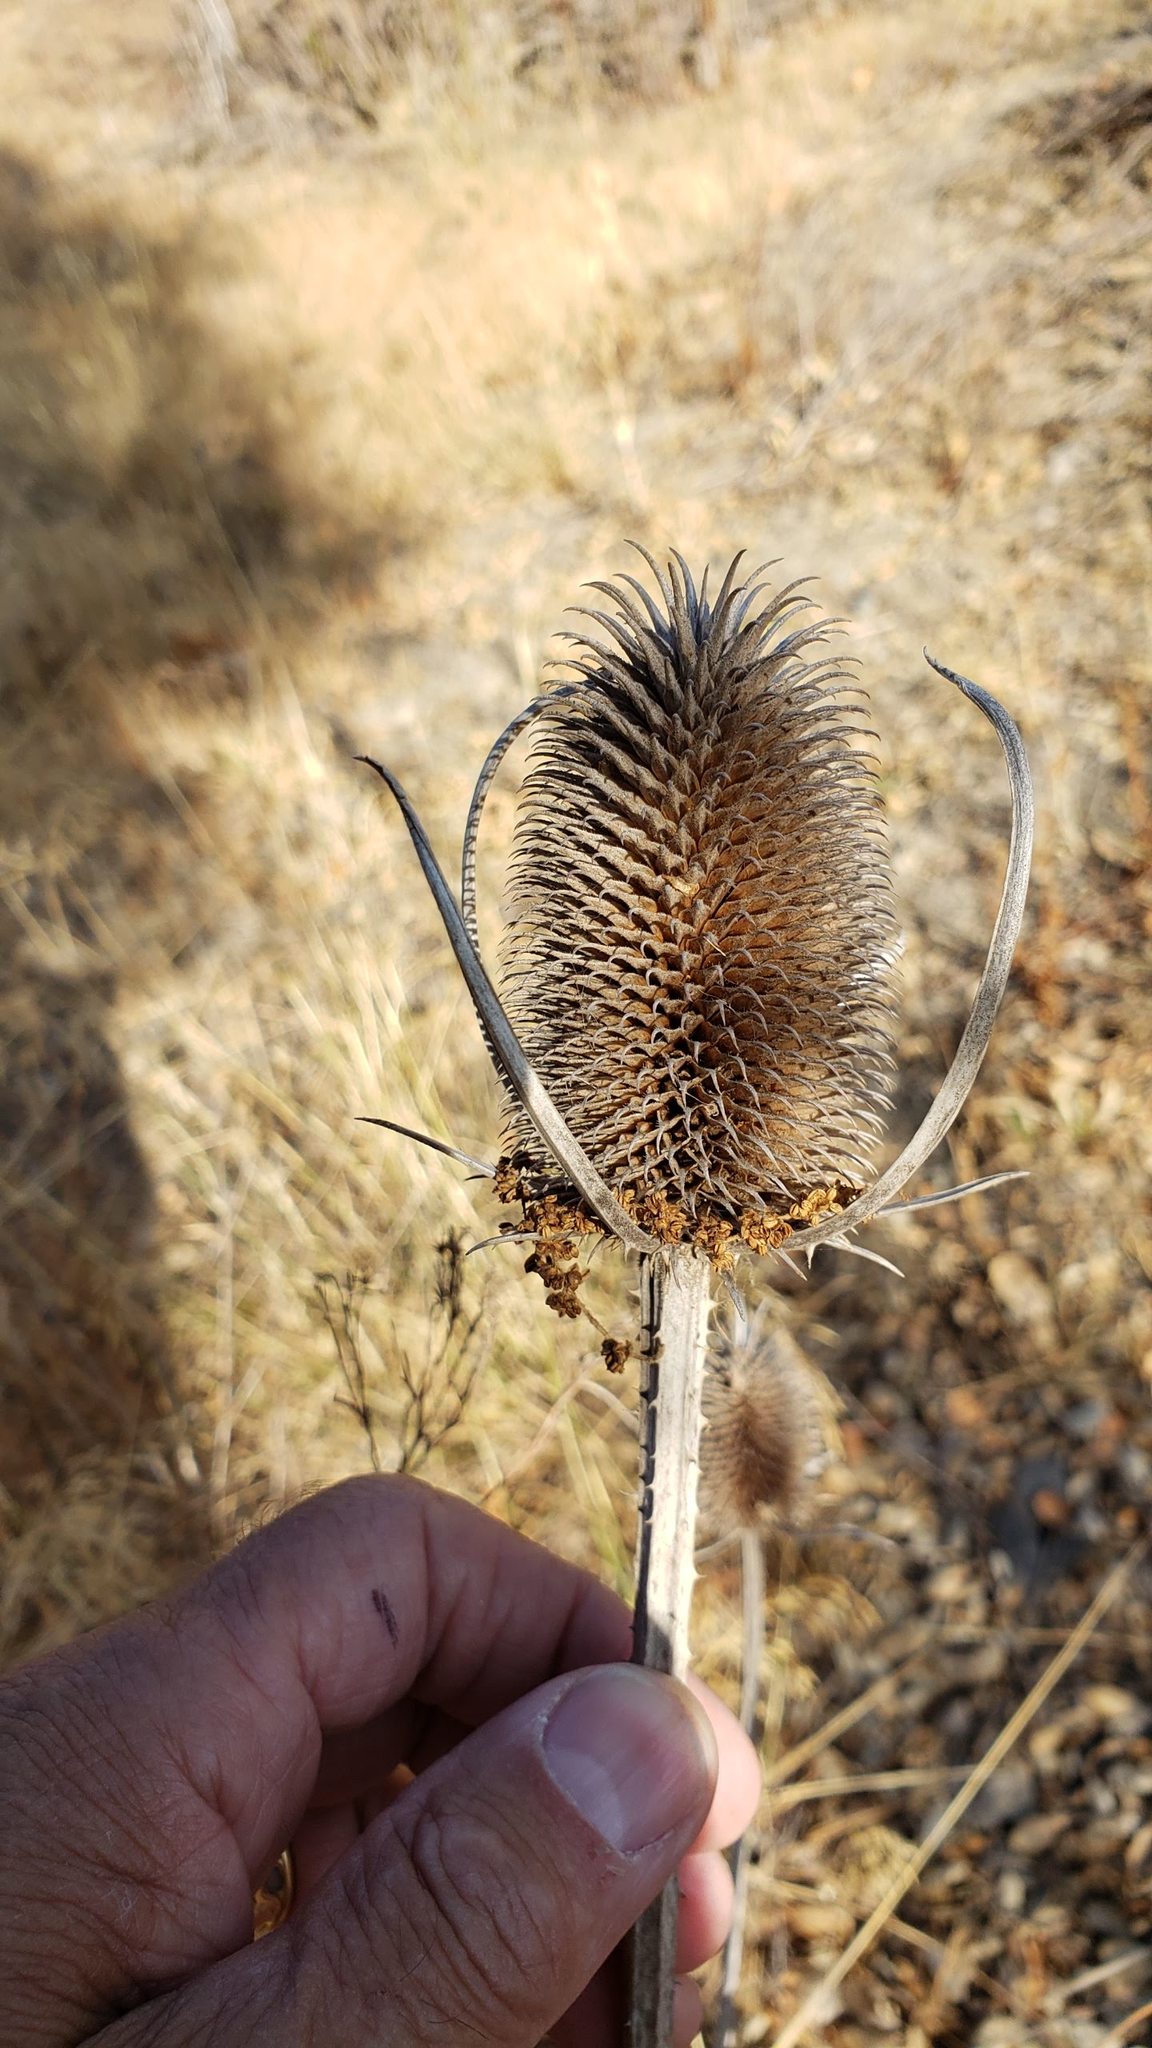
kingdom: Plantae
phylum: Tracheophyta
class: Magnoliopsida
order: Dipsacales
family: Caprifoliaceae
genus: Dipsacus
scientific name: Dipsacus sativus
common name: Fuller's teasel
